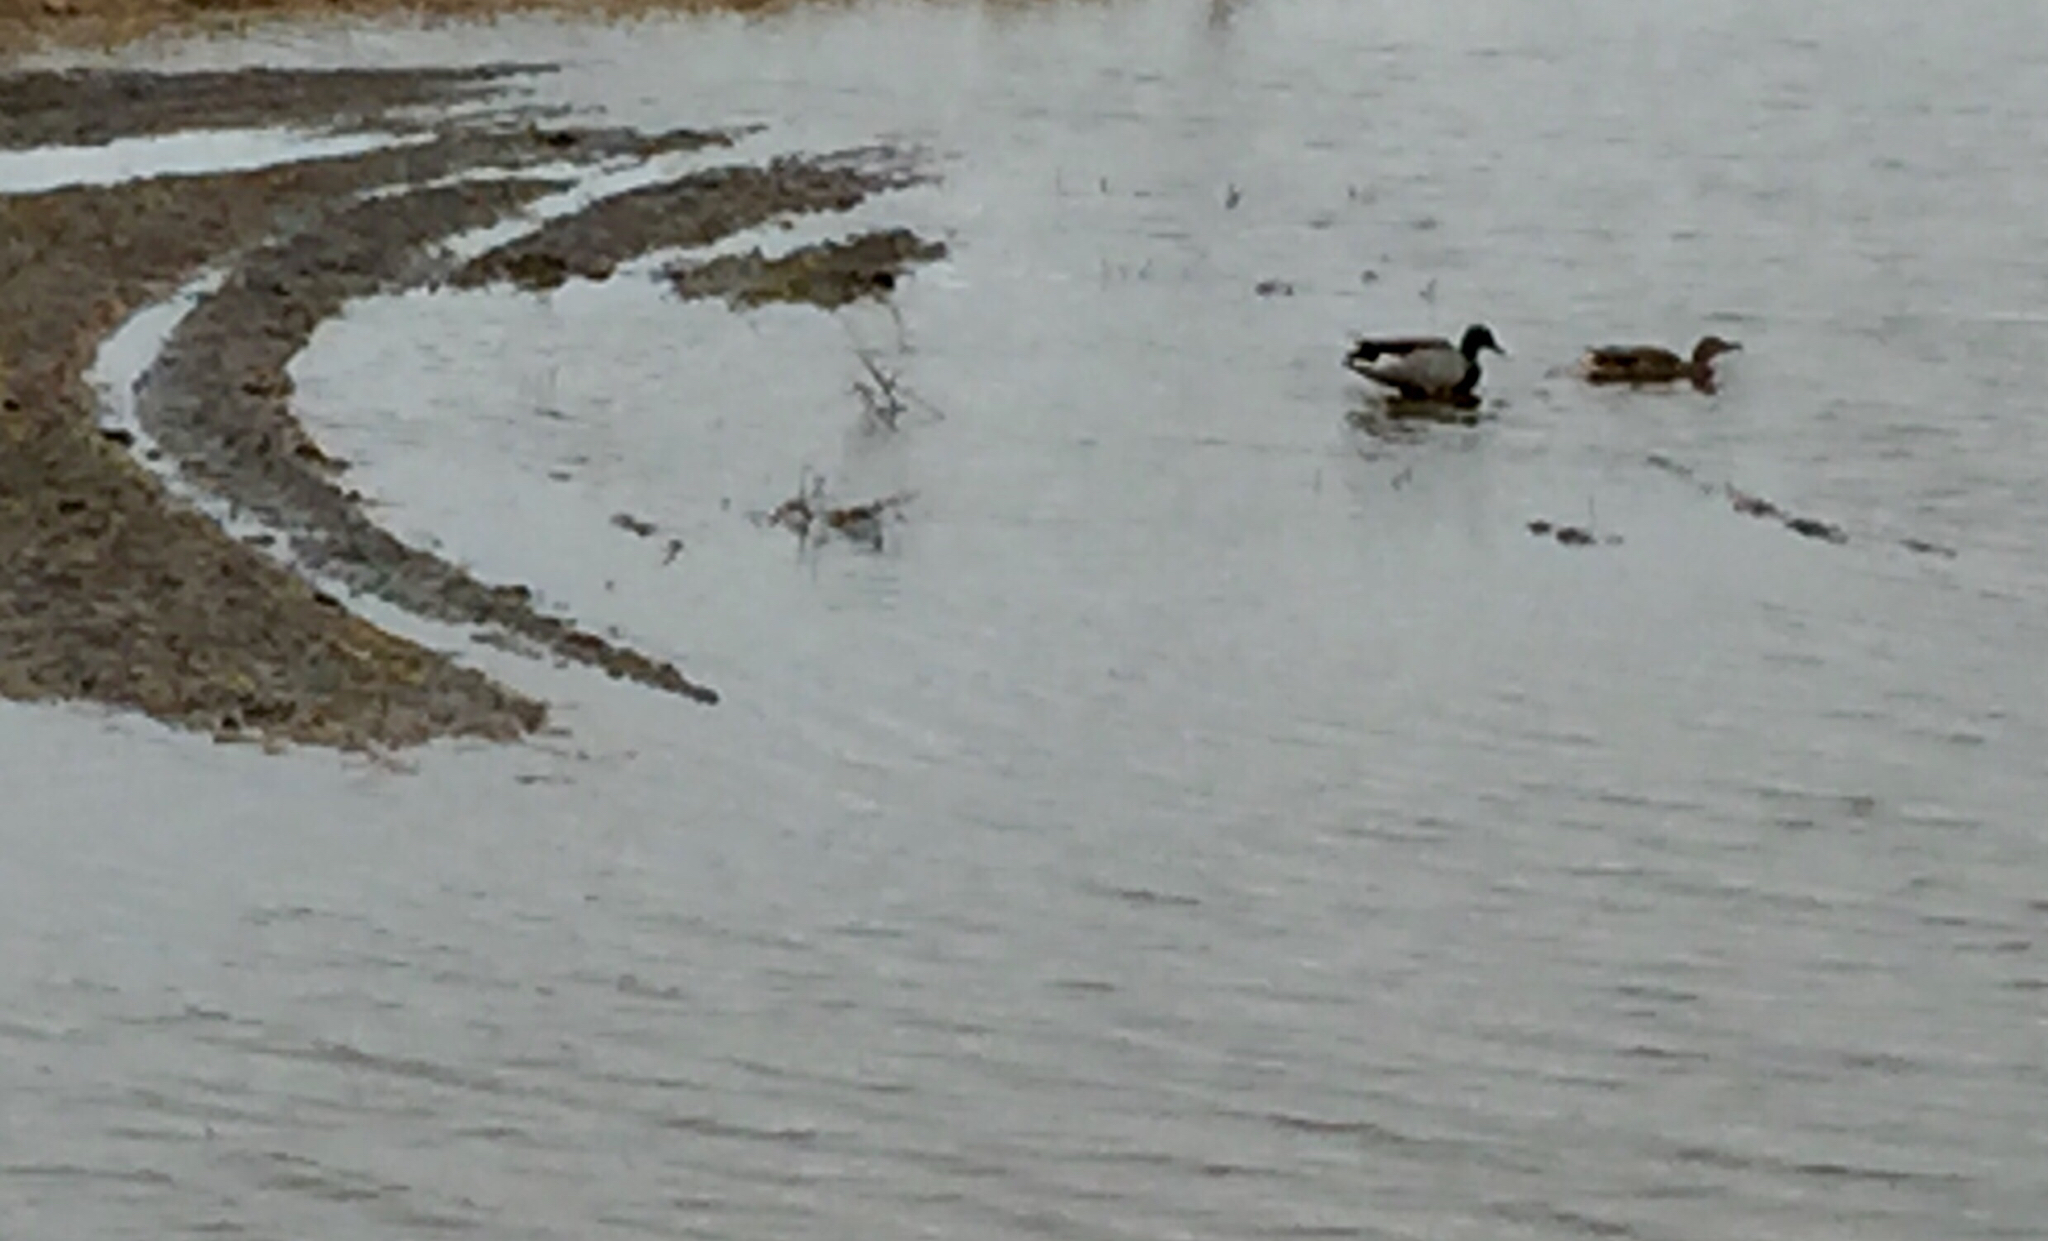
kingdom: Animalia
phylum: Chordata
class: Aves
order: Anseriformes
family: Anatidae
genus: Anas
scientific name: Anas platyrhynchos
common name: Mallard
